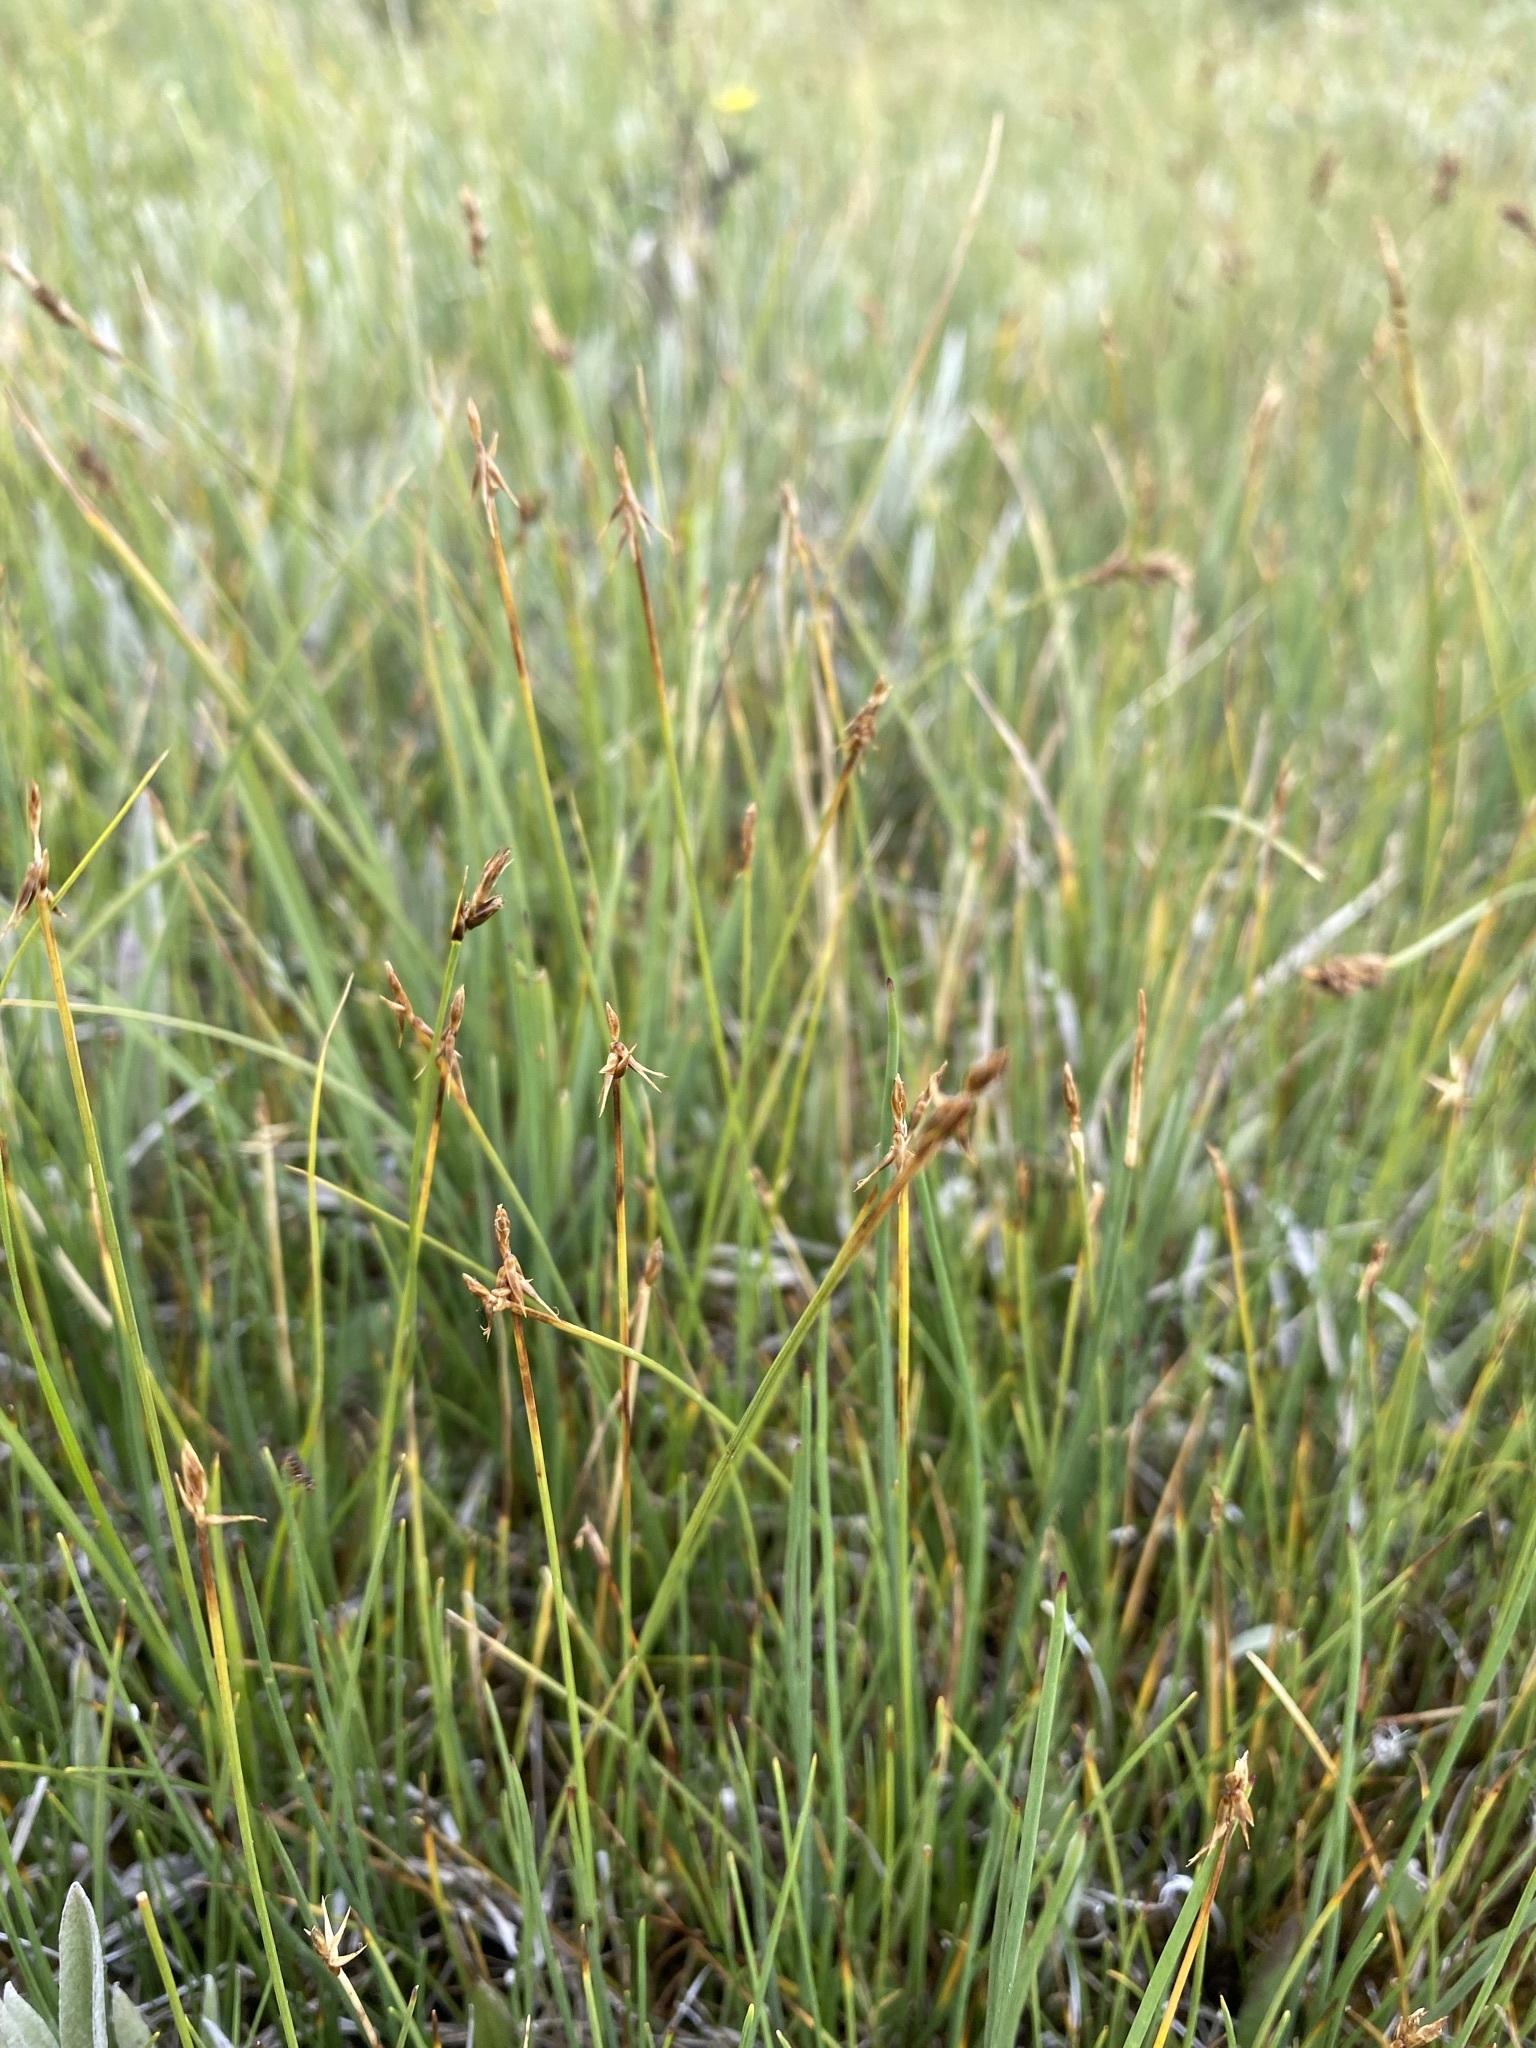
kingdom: Plantae
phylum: Tracheophyta
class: Liliopsida
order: Poales
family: Cyperaceae
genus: Carex
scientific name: Carex microglochin
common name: Bristle sedge
